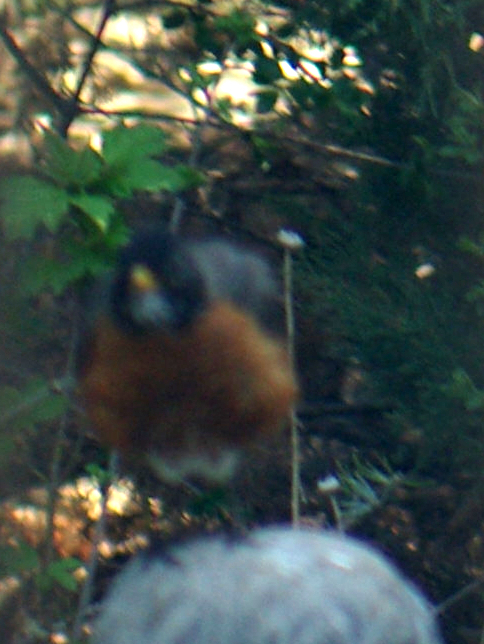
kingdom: Animalia
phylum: Chordata
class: Aves
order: Passeriformes
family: Turdidae
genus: Turdus
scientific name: Turdus migratorius
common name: American robin
